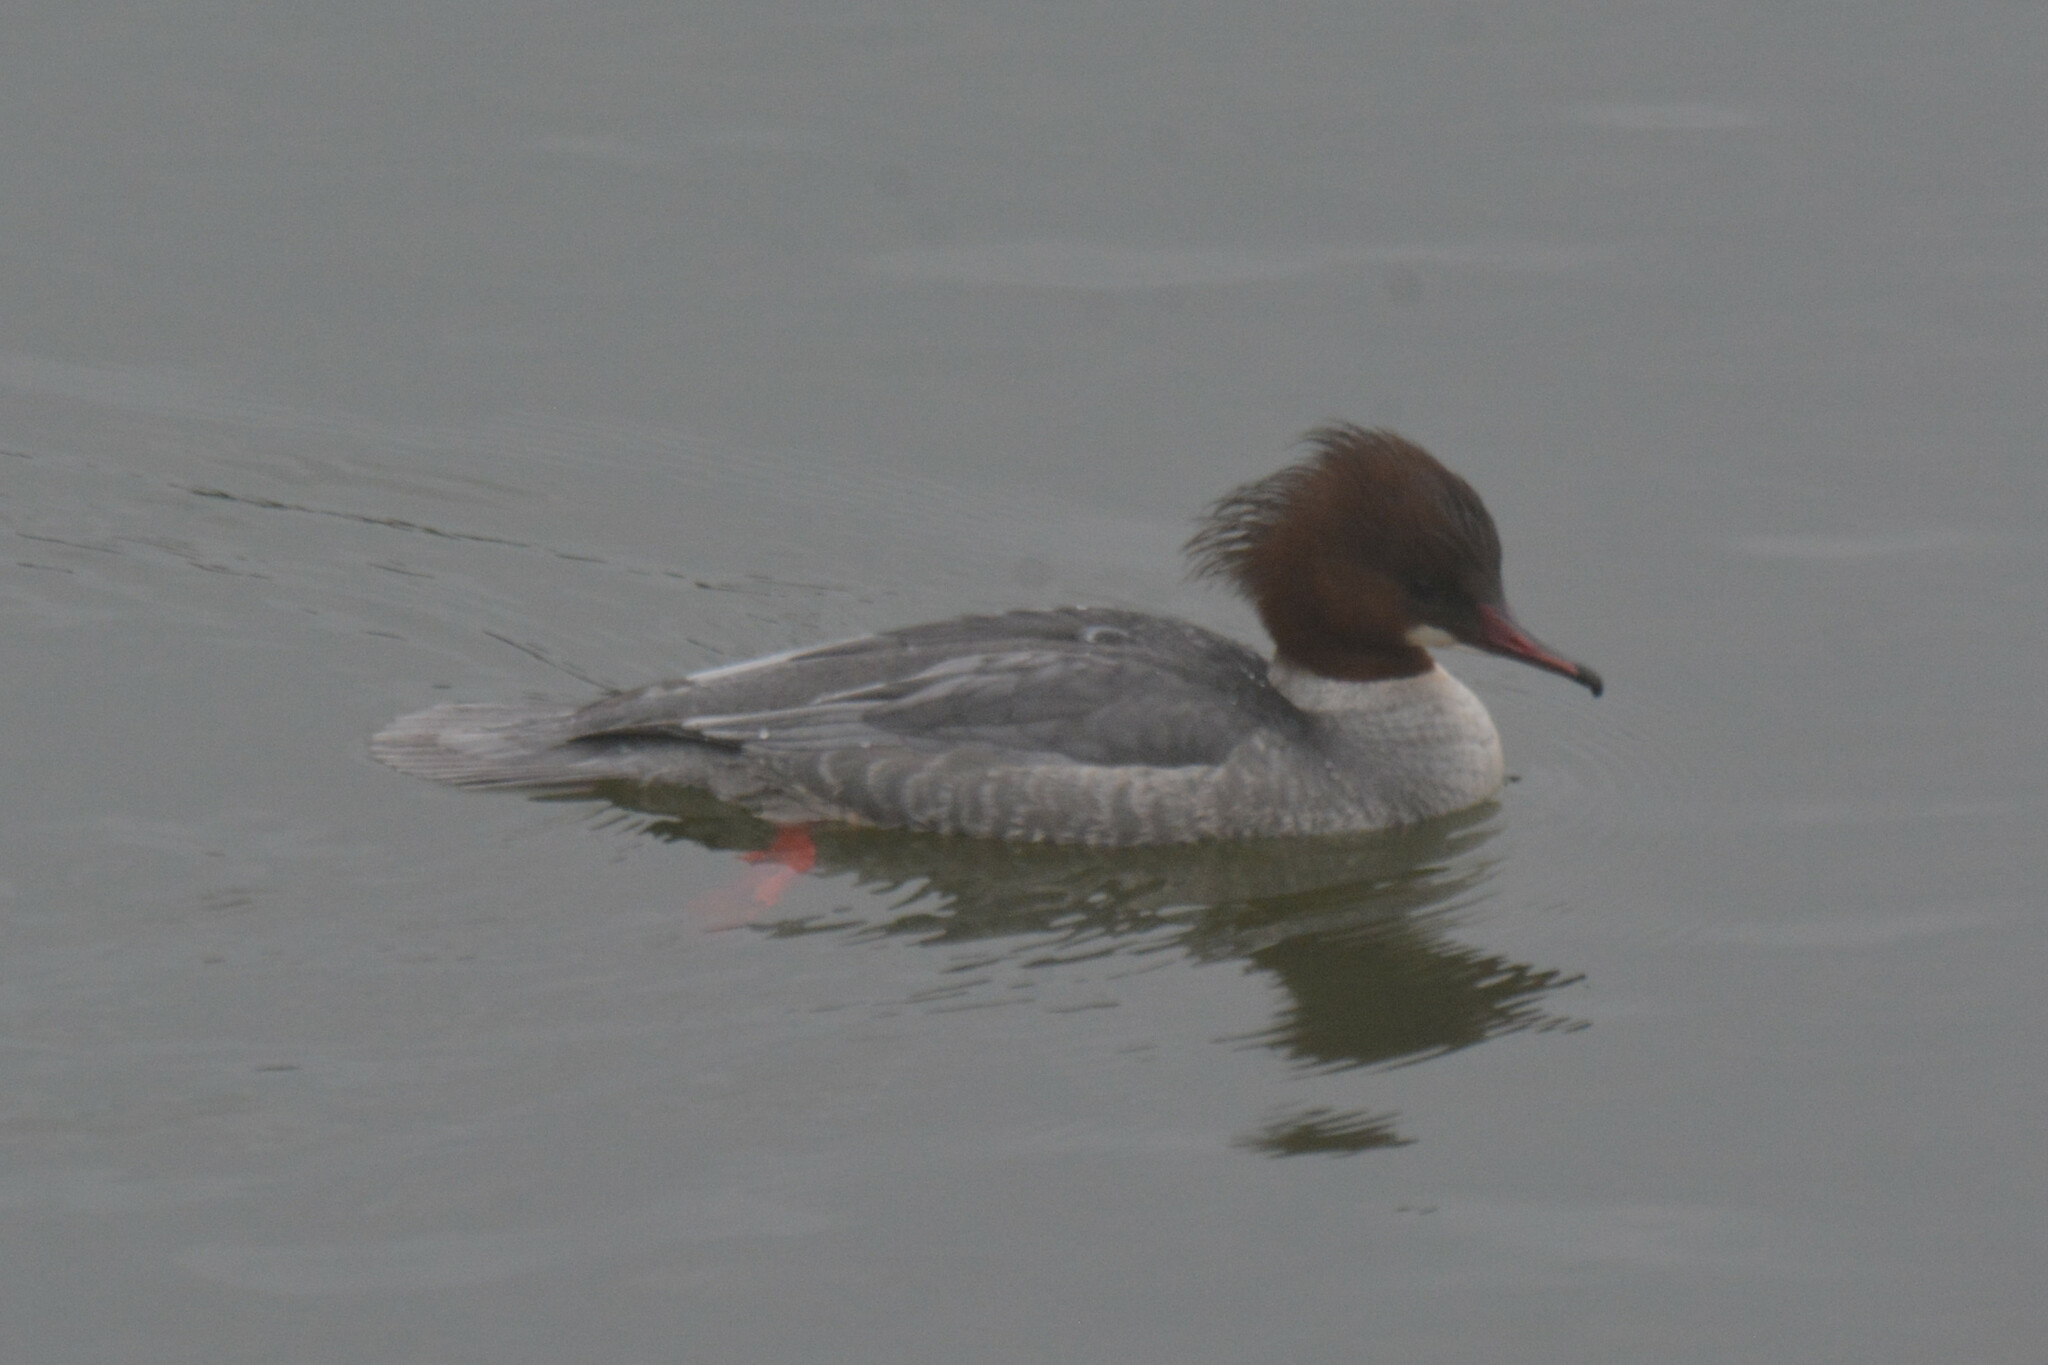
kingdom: Animalia
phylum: Chordata
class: Aves
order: Anseriformes
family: Anatidae
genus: Mergus
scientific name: Mergus merganser
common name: Common merganser
